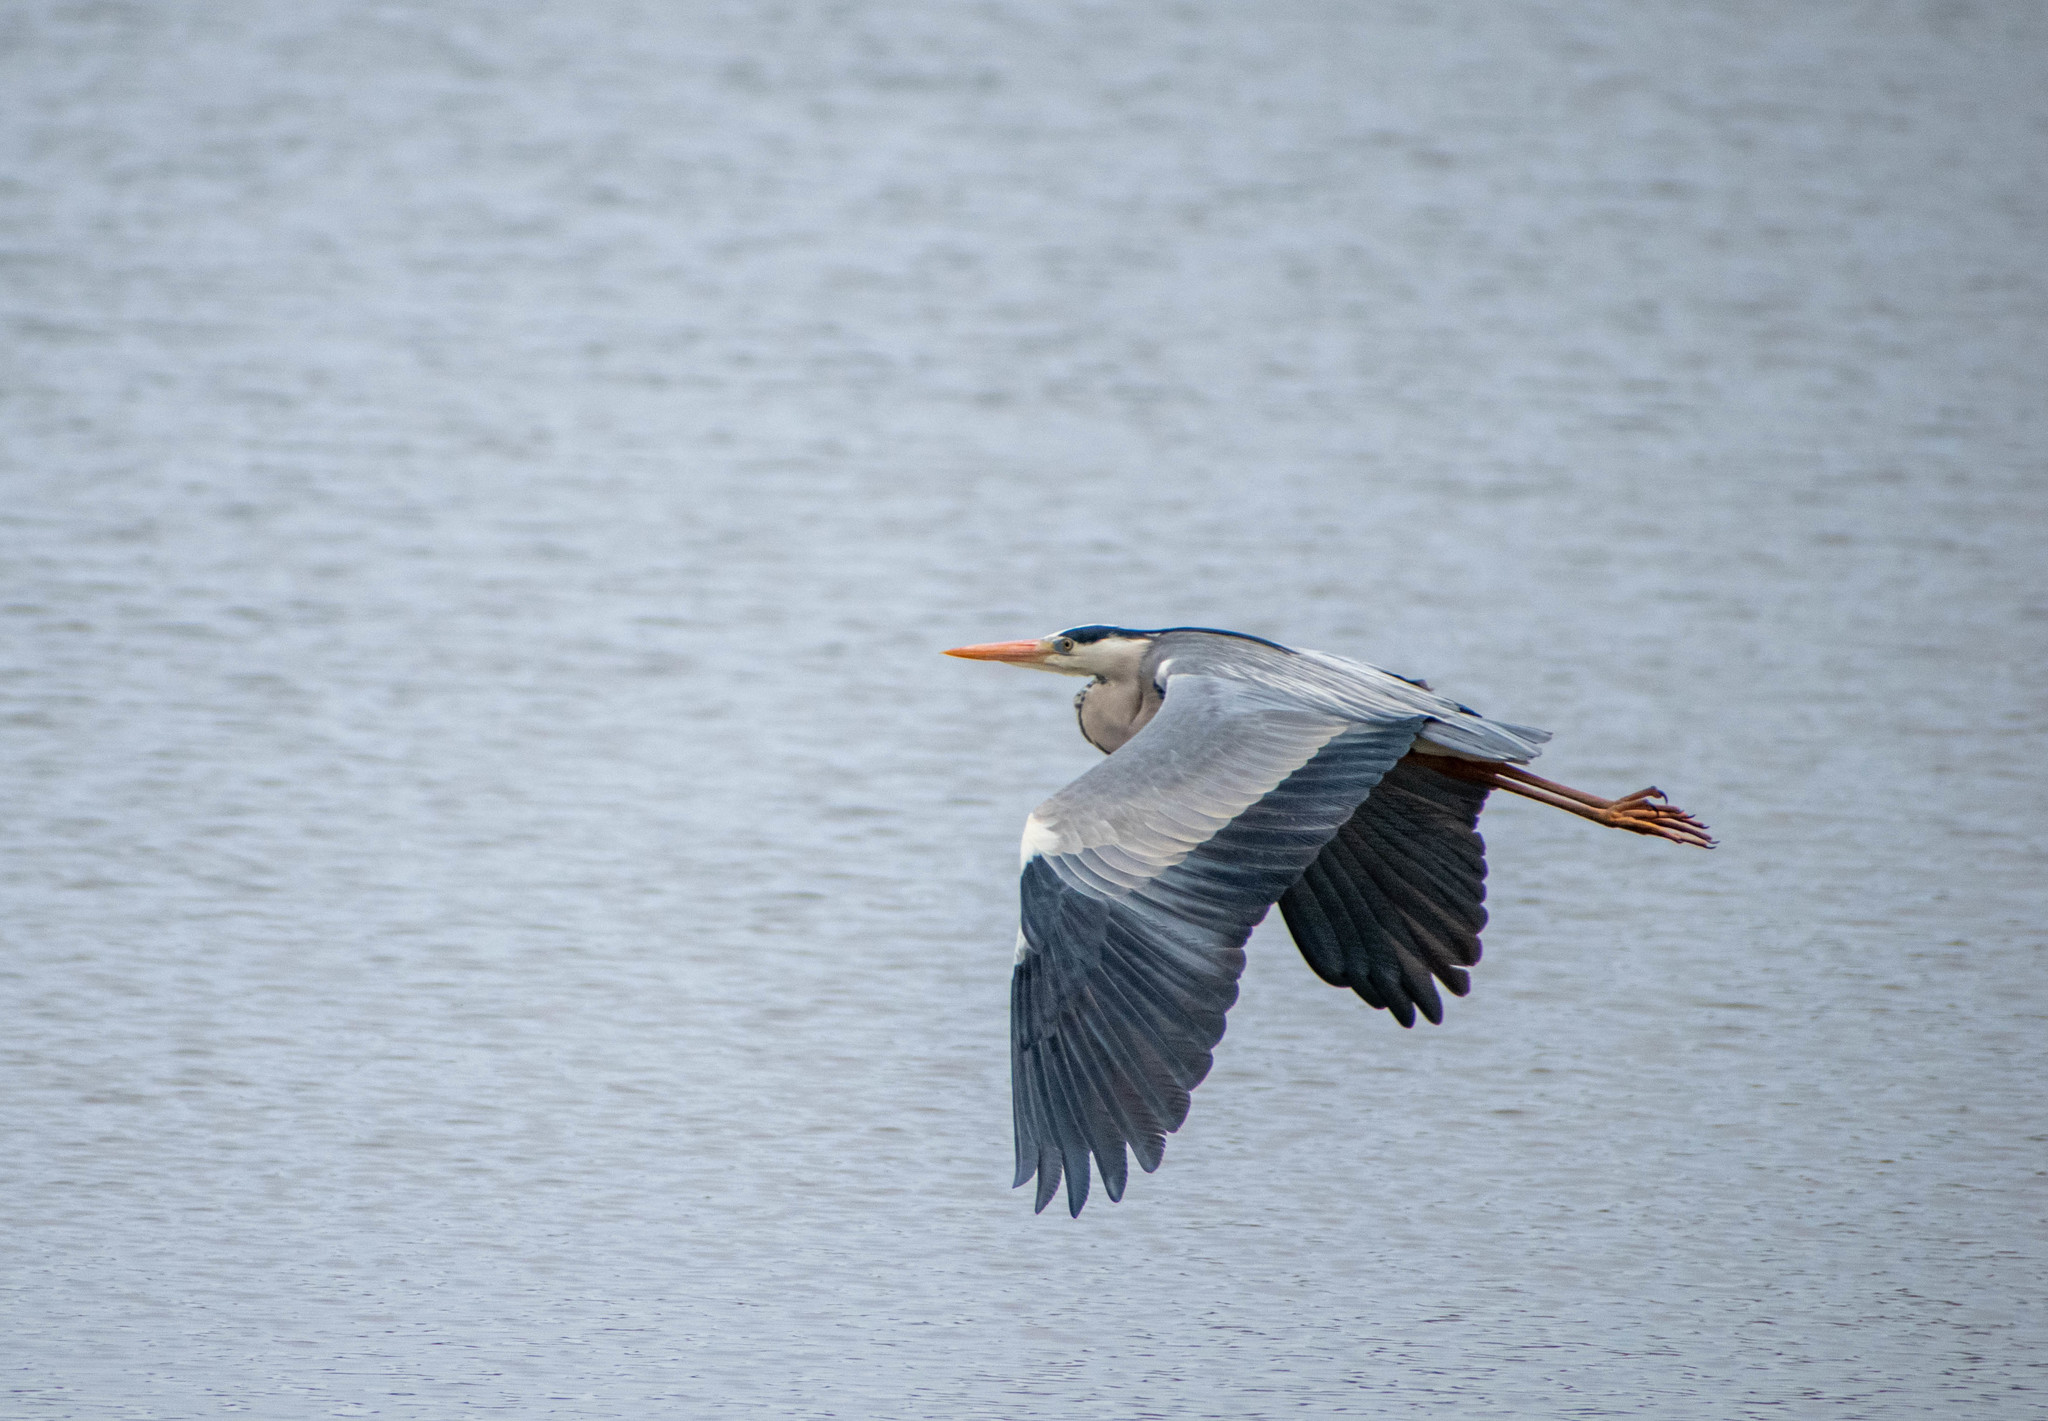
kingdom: Animalia
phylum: Chordata
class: Aves
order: Pelecaniformes
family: Ardeidae
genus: Ardea
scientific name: Ardea cinerea
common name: Grey heron
